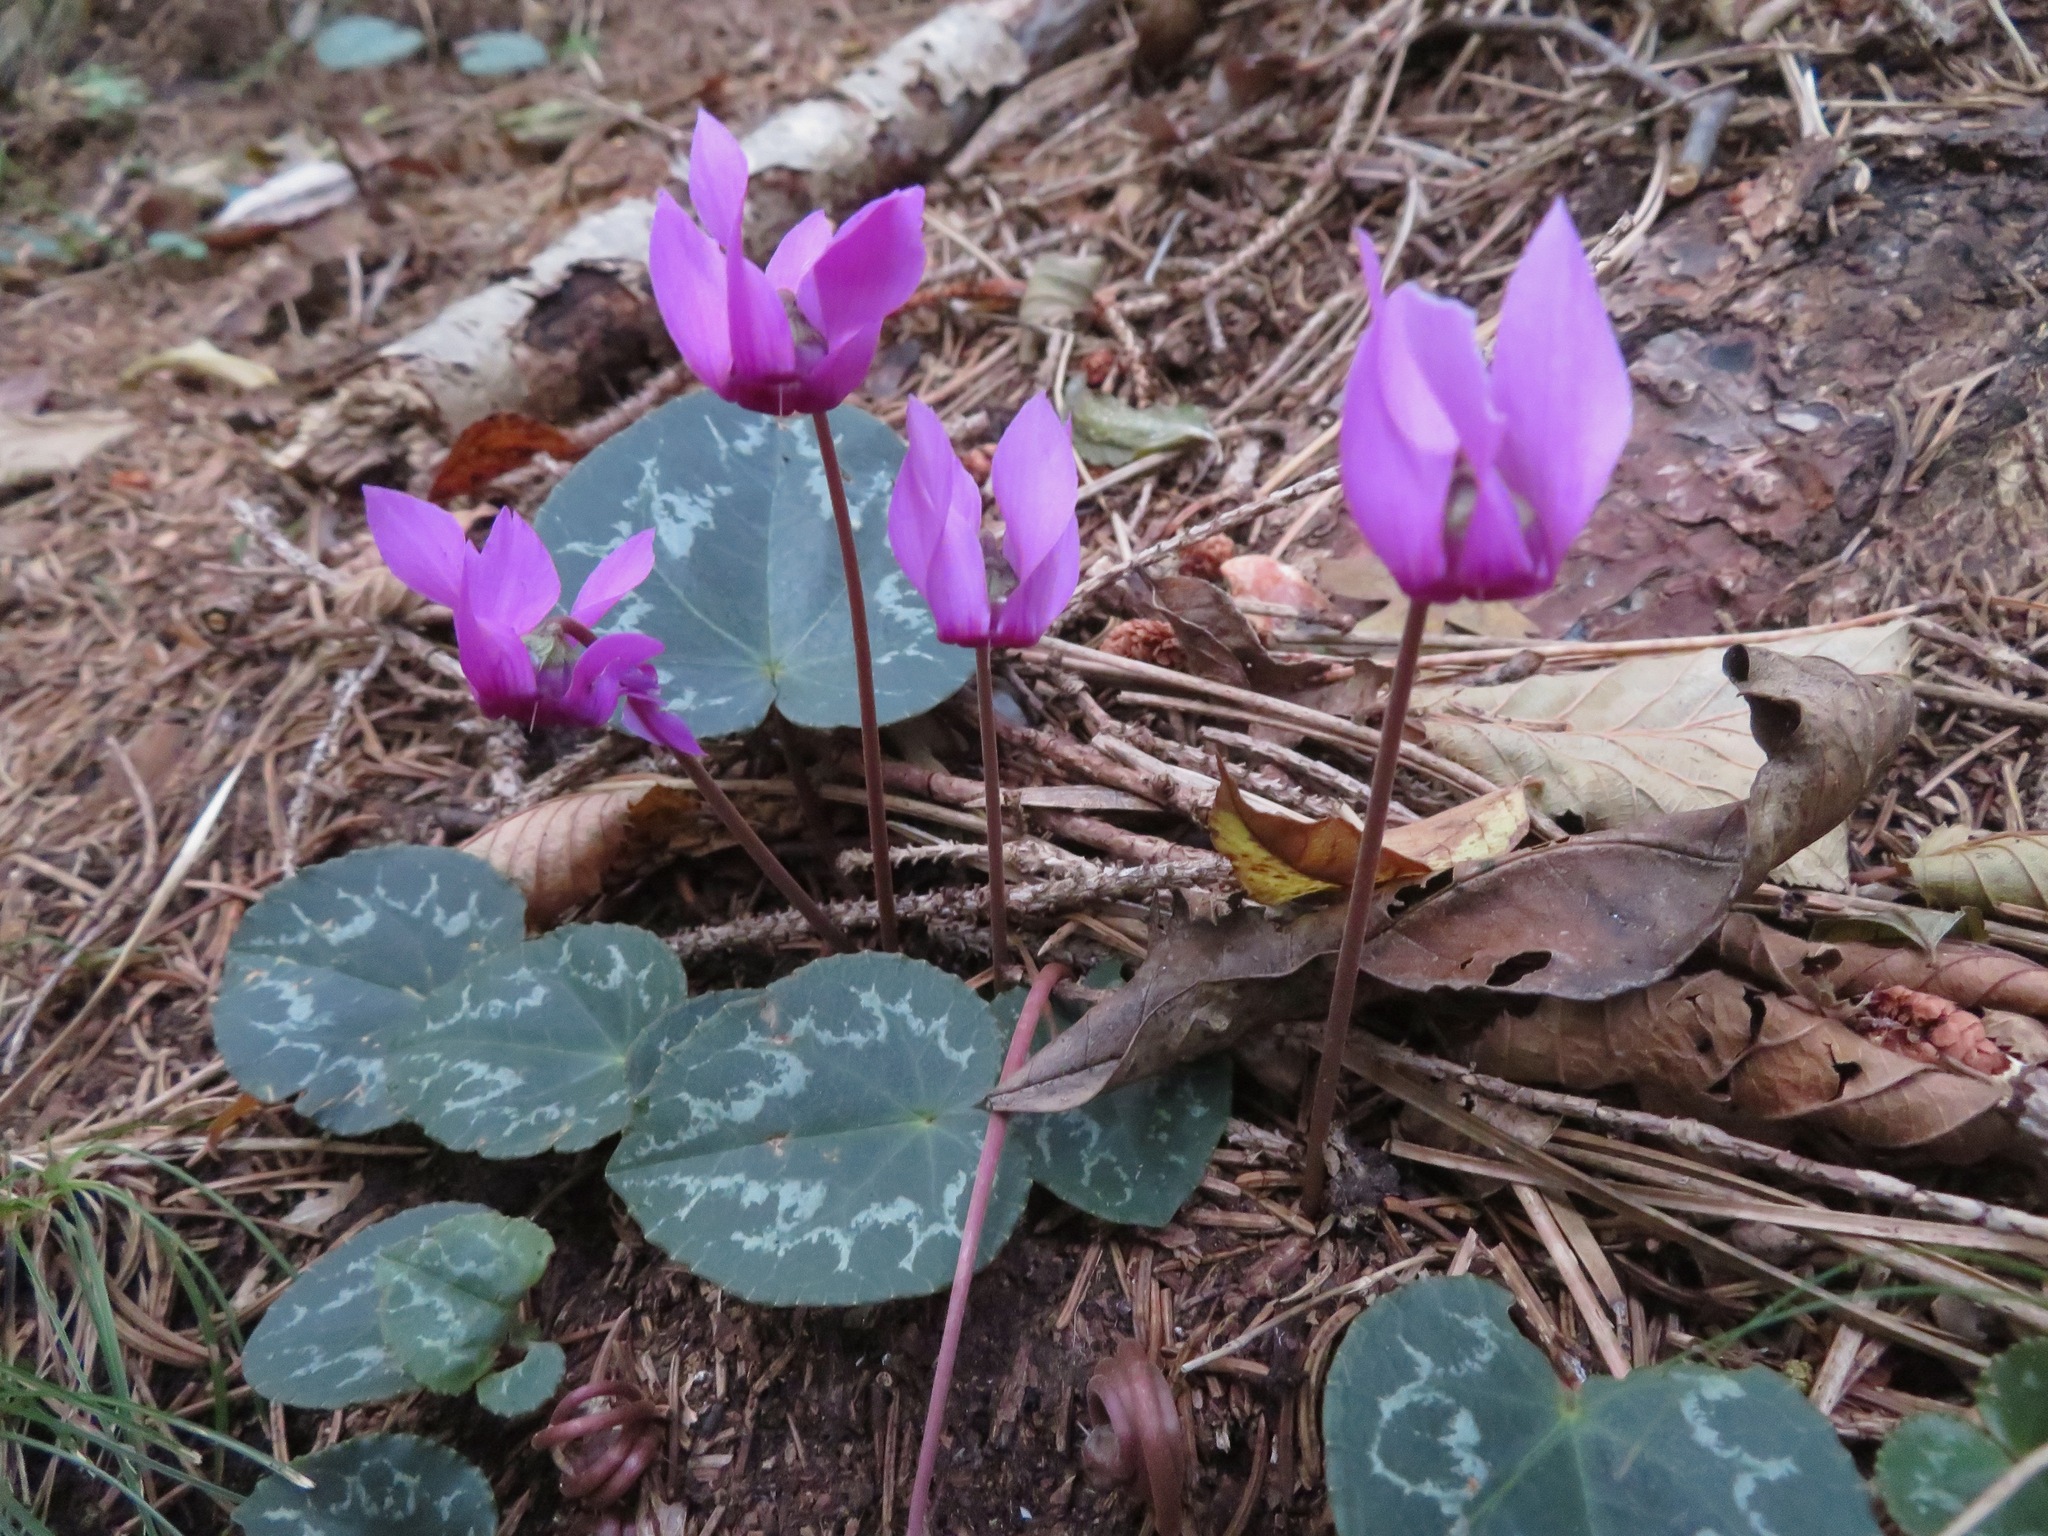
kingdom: Plantae
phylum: Tracheophyta
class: Magnoliopsida
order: Ericales
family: Primulaceae
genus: Cyclamen
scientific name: Cyclamen purpurascens
